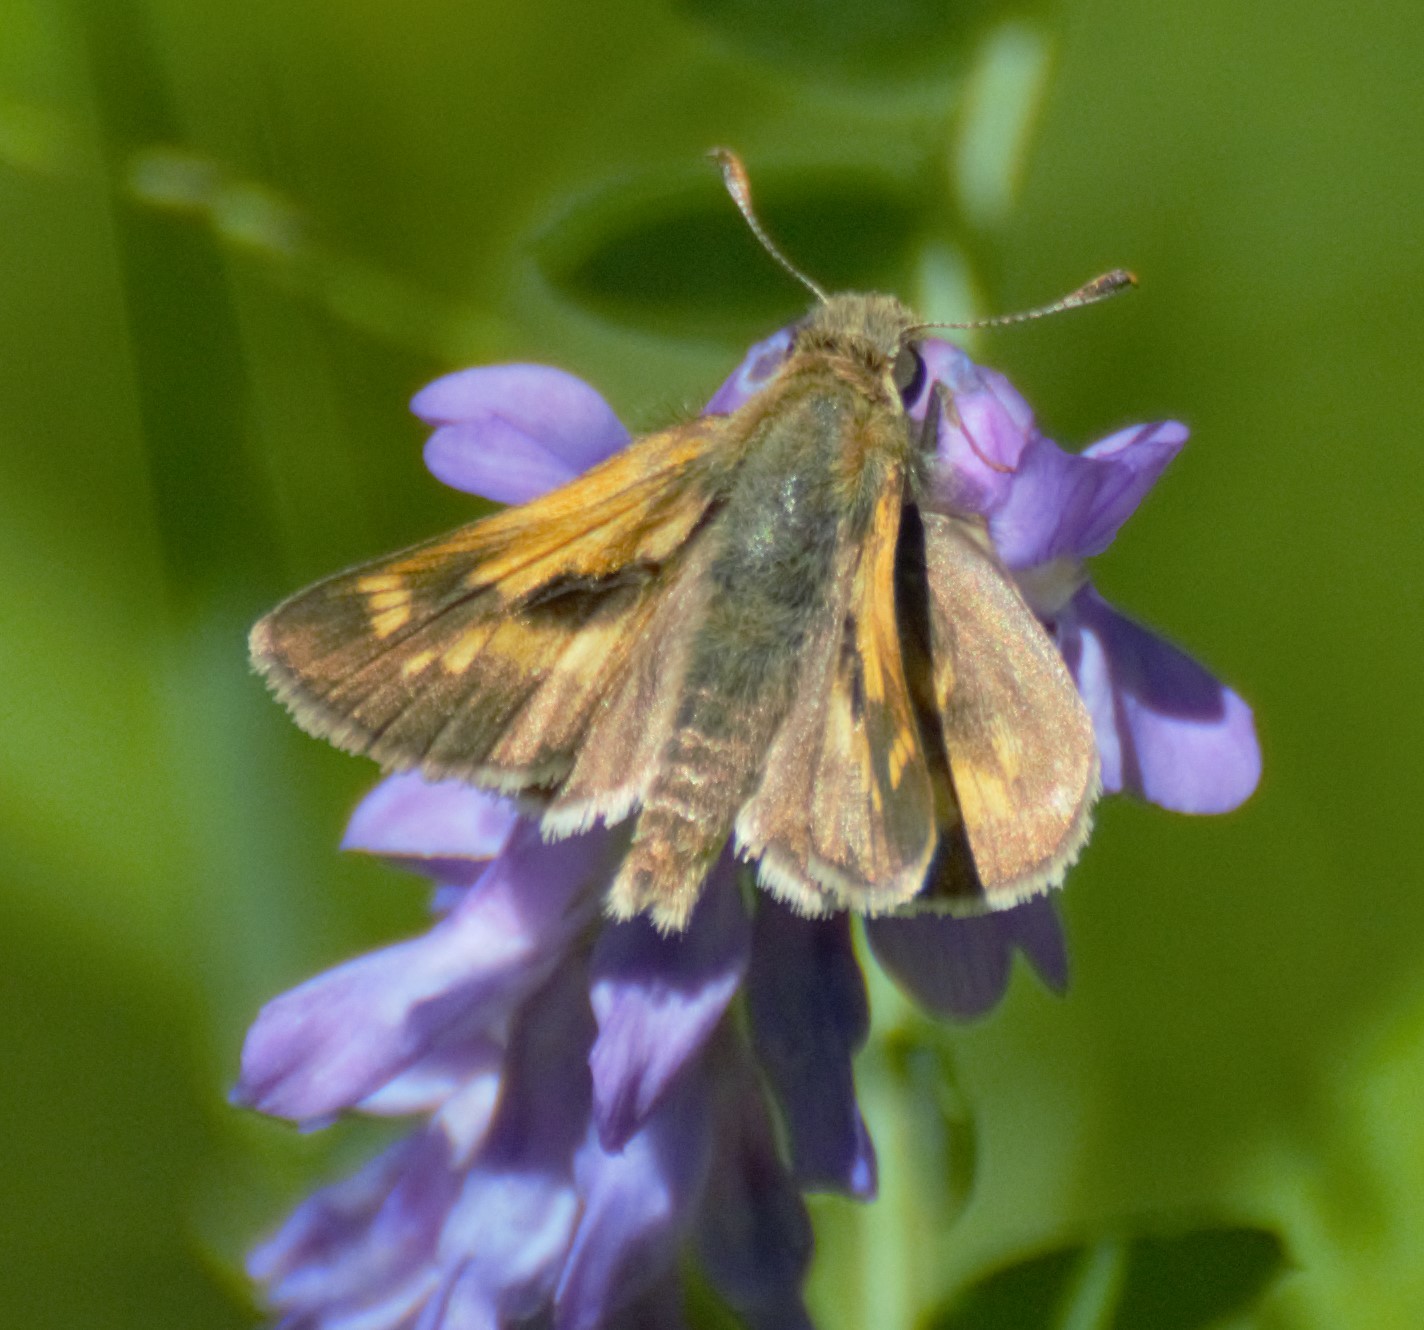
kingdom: Animalia
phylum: Arthropoda
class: Insecta
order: Lepidoptera
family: Hesperiidae
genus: Polites
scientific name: Polites mystic
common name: Long dash
